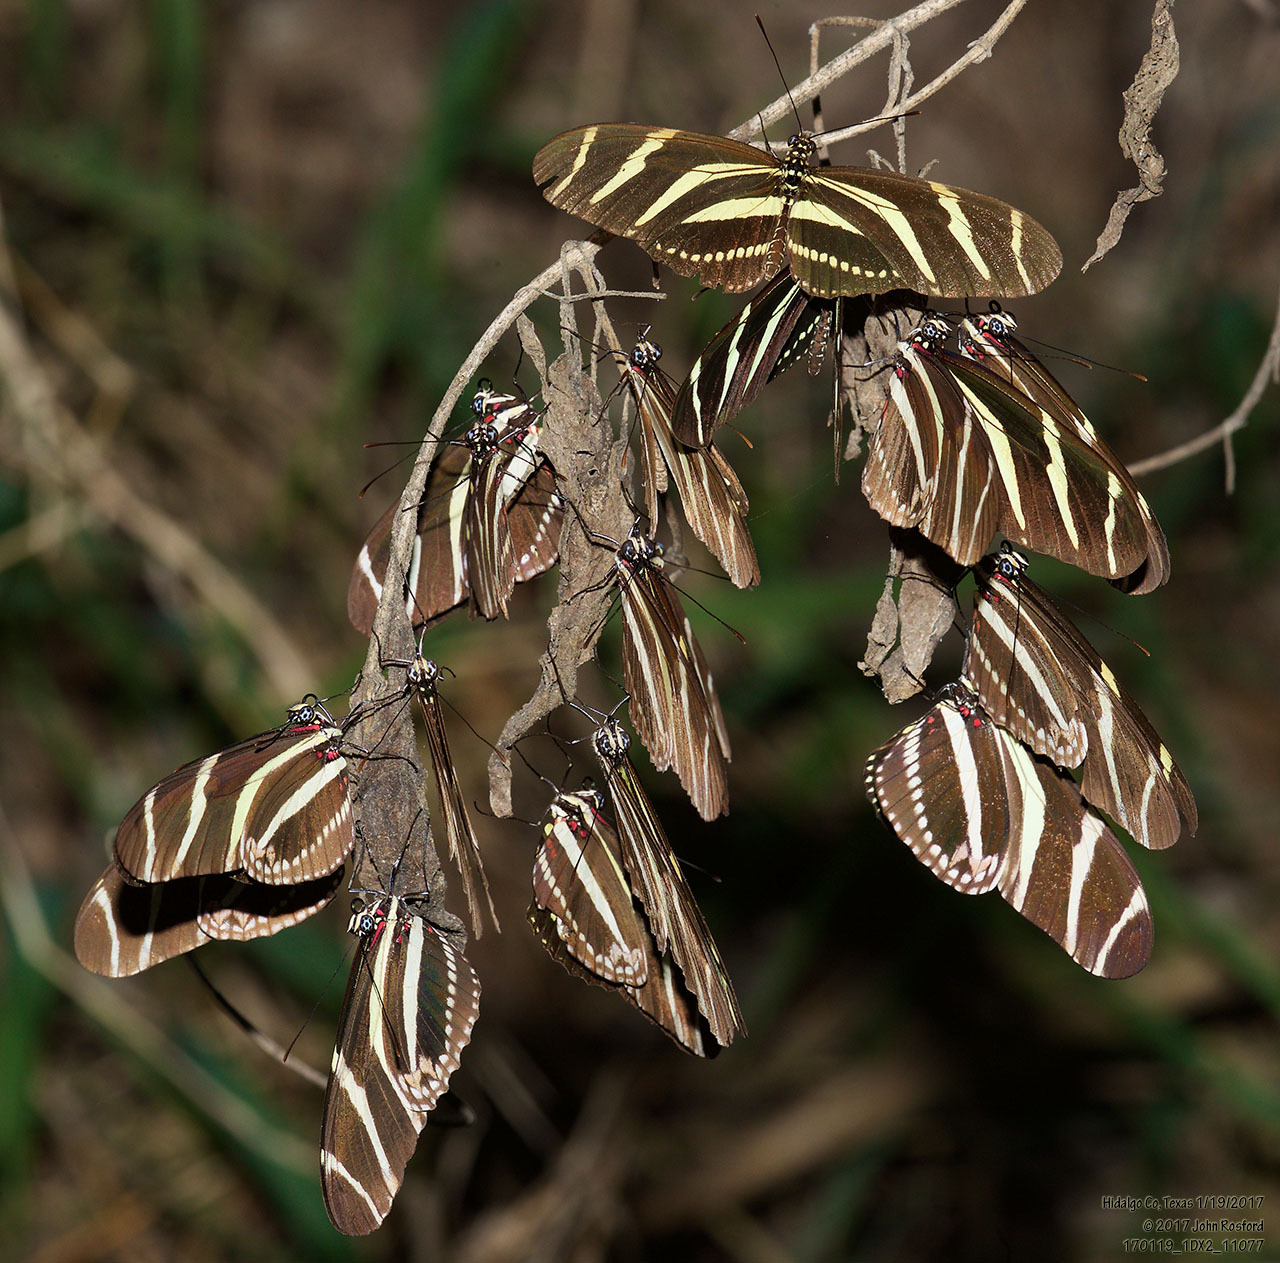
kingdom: Animalia
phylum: Arthropoda
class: Insecta
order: Lepidoptera
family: Nymphalidae
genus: Heliconius
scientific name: Heliconius charithonia
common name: Zebra long wing
